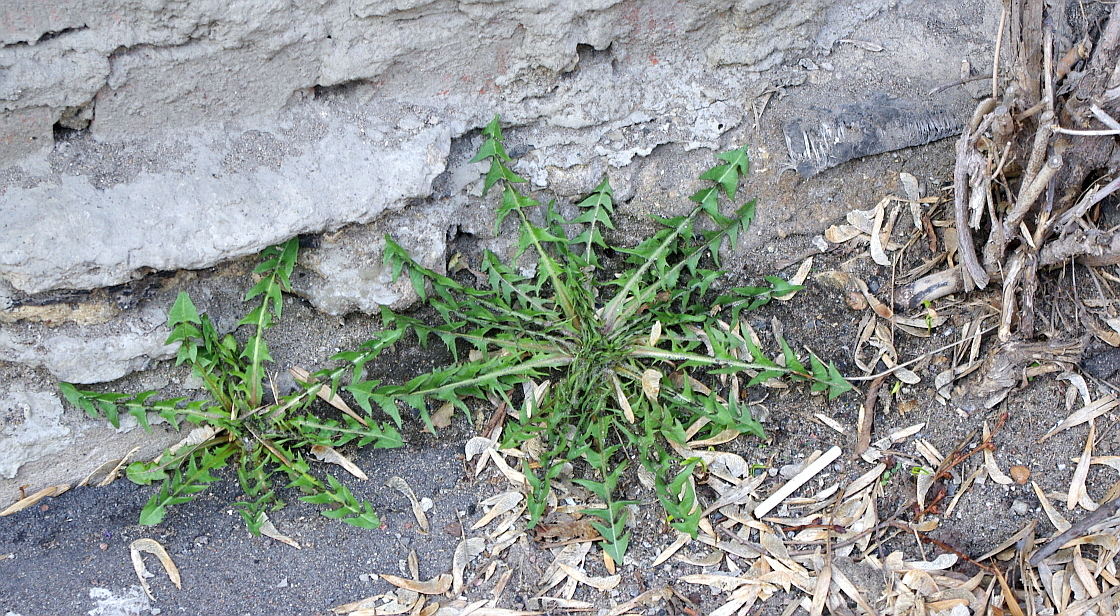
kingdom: Plantae
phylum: Tracheophyta
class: Magnoliopsida
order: Asterales
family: Asteraceae
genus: Taraxacum
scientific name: Taraxacum officinale
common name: Common dandelion
